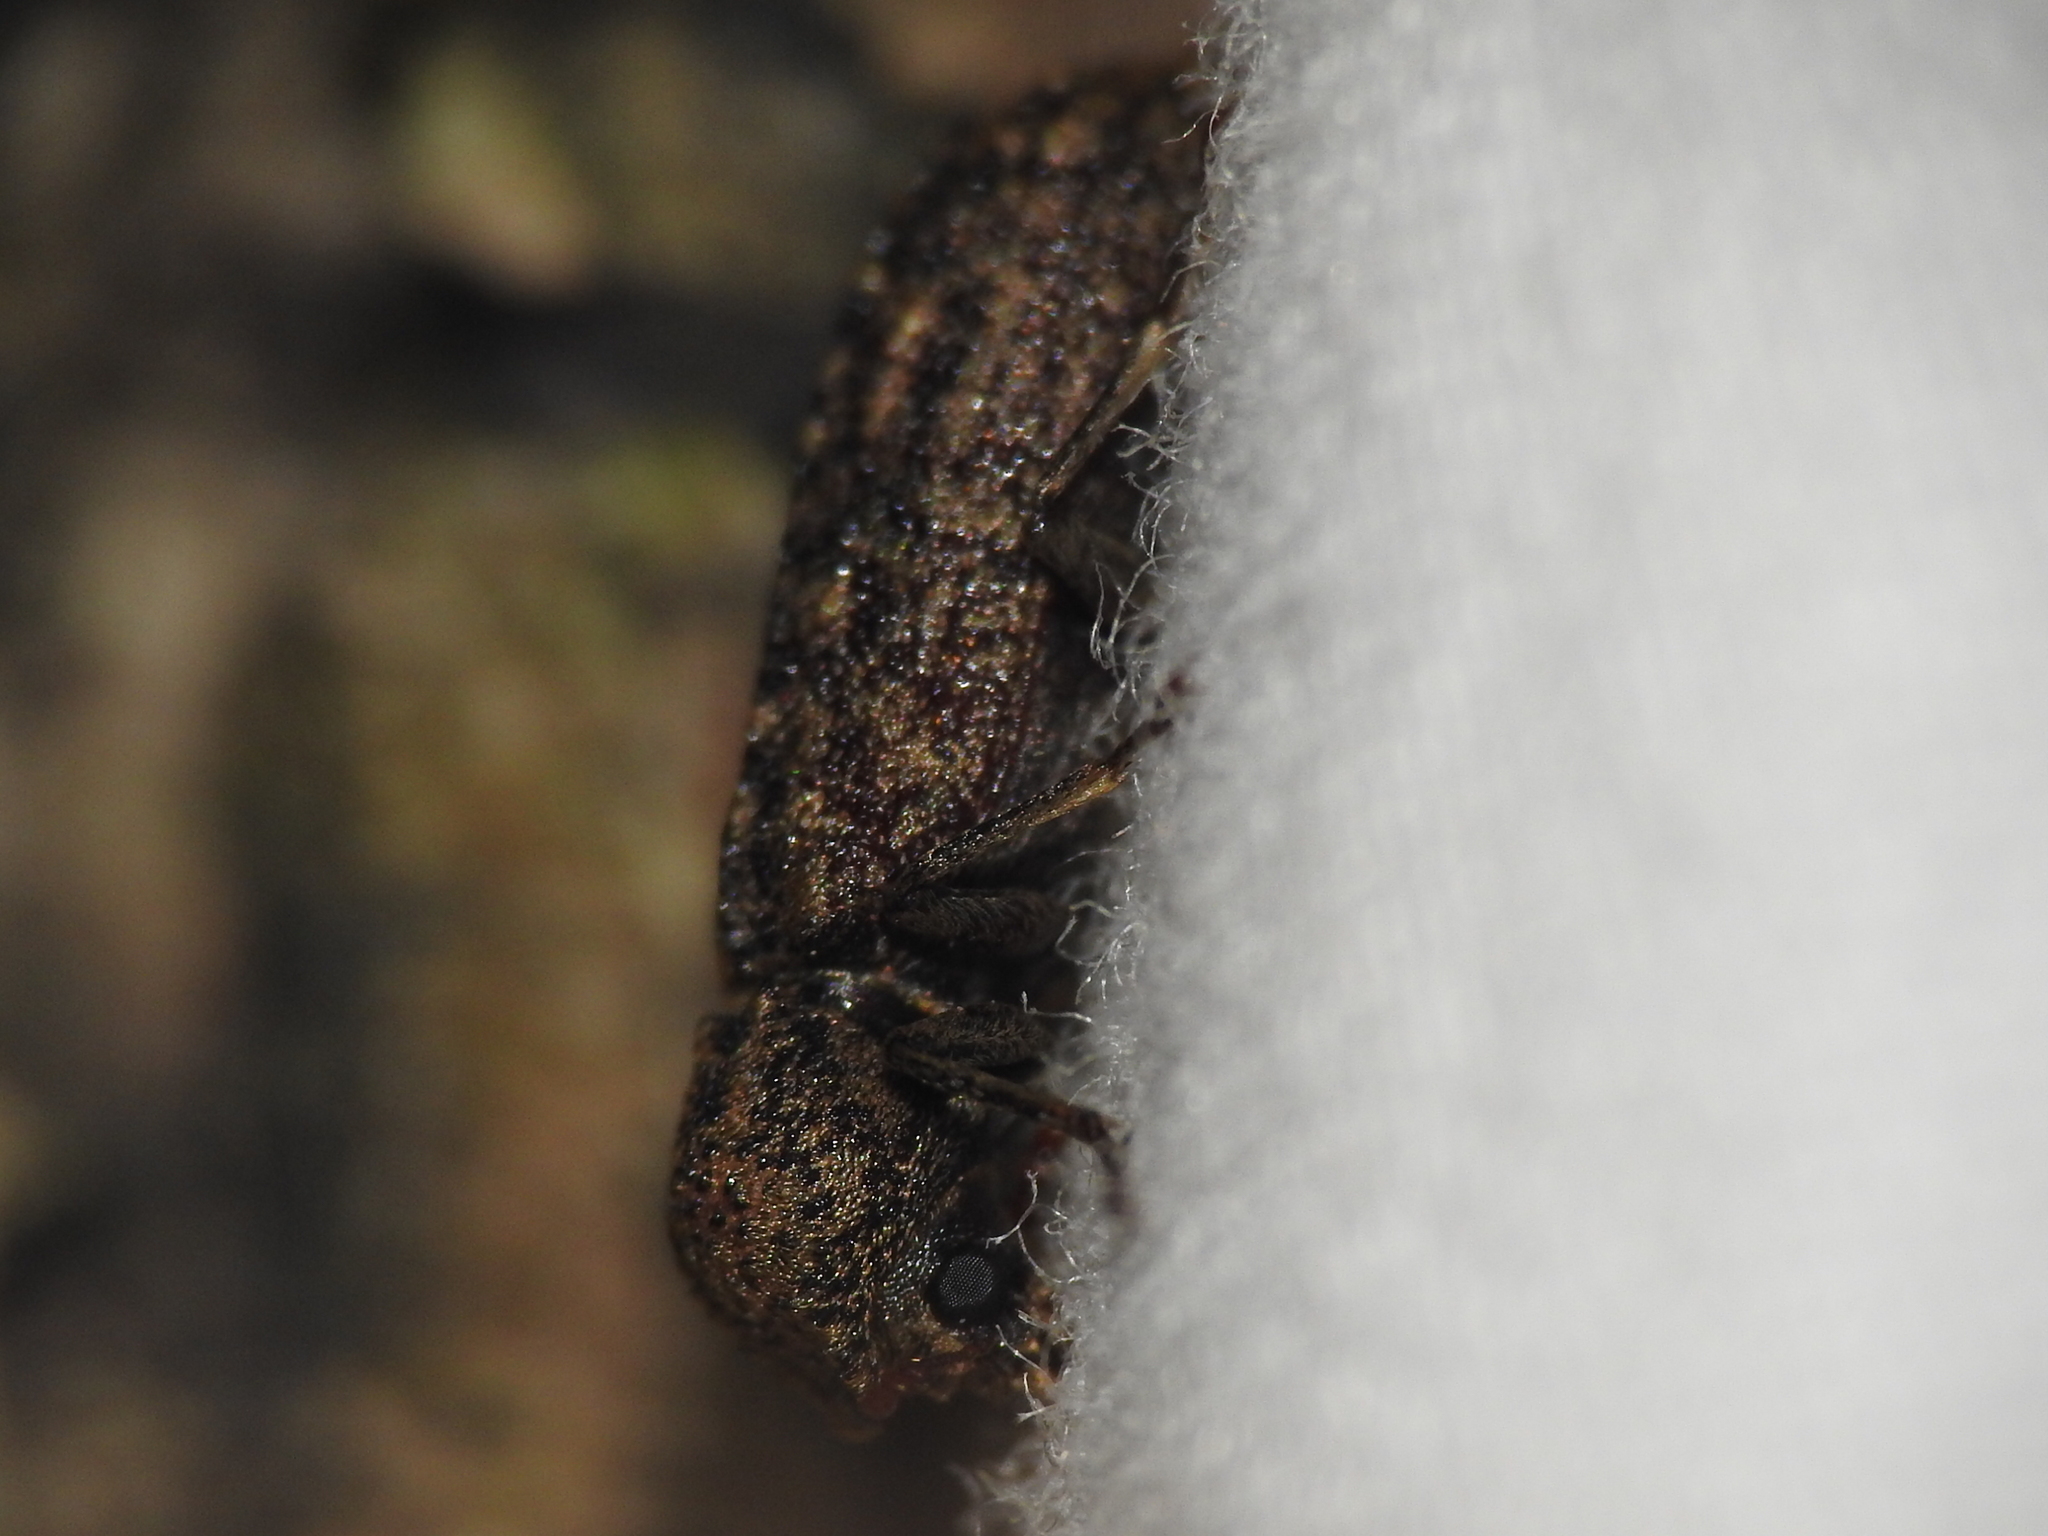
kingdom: Animalia
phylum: Arthropoda
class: Insecta
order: Coleoptera
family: Bostrichidae
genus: Lichenophanes
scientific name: Lichenophanes bicornis
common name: Two-horned powder-post beetle
